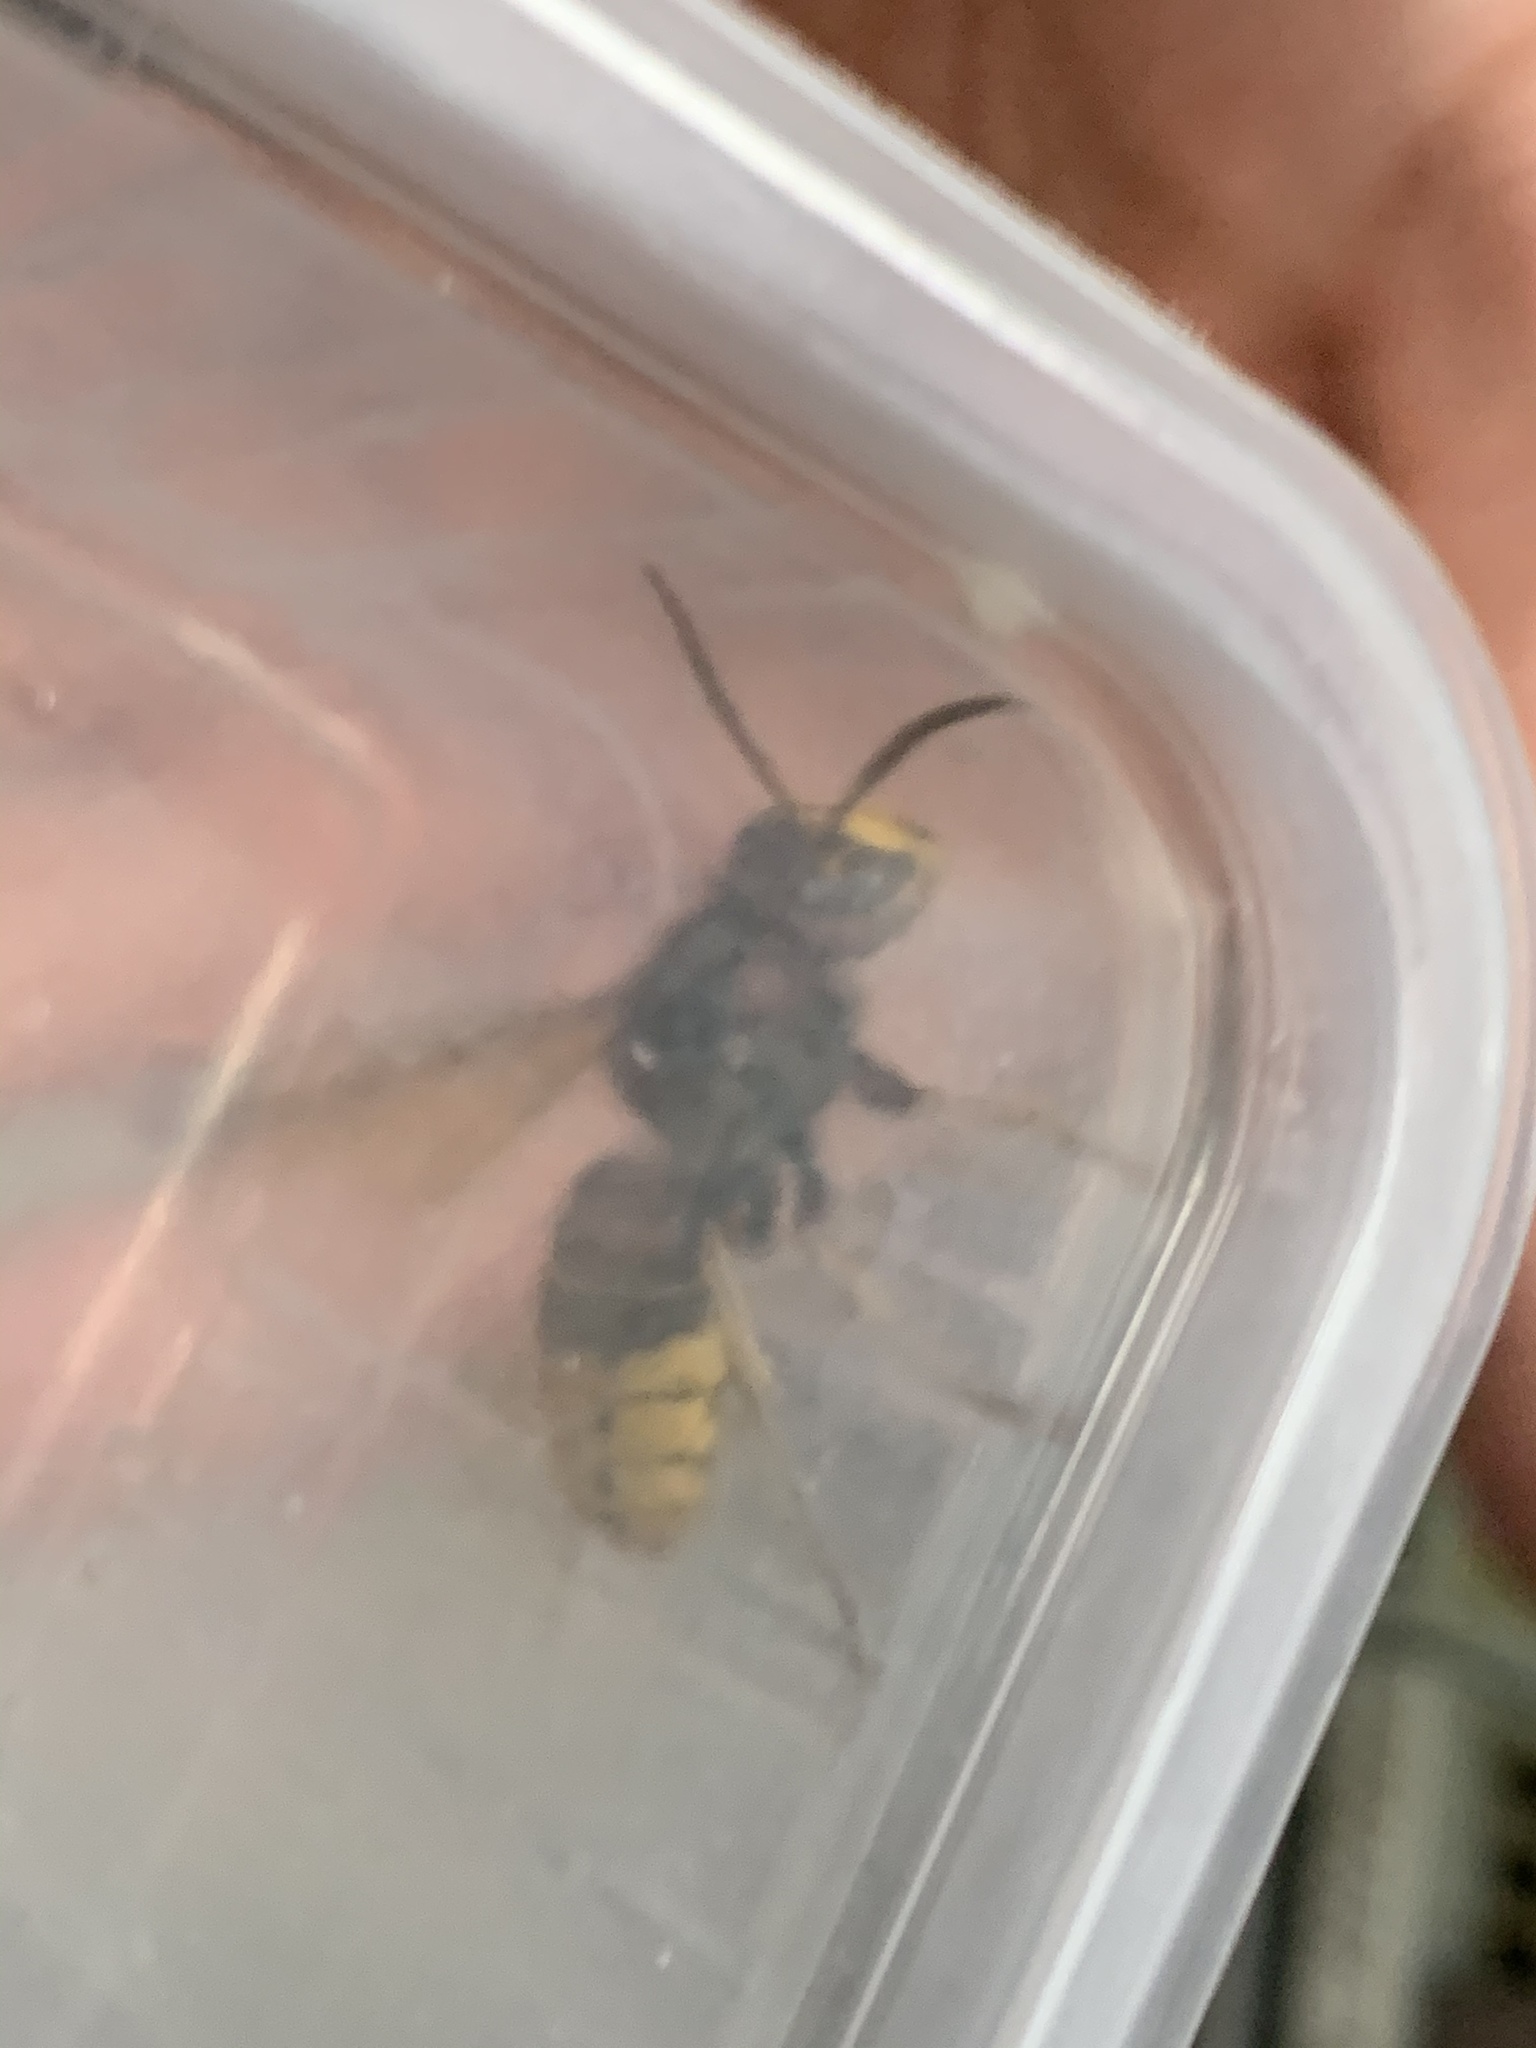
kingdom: Animalia
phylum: Arthropoda
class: Insecta
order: Hymenoptera
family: Vespidae
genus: Vespa
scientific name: Vespa crabro
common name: Hornet
